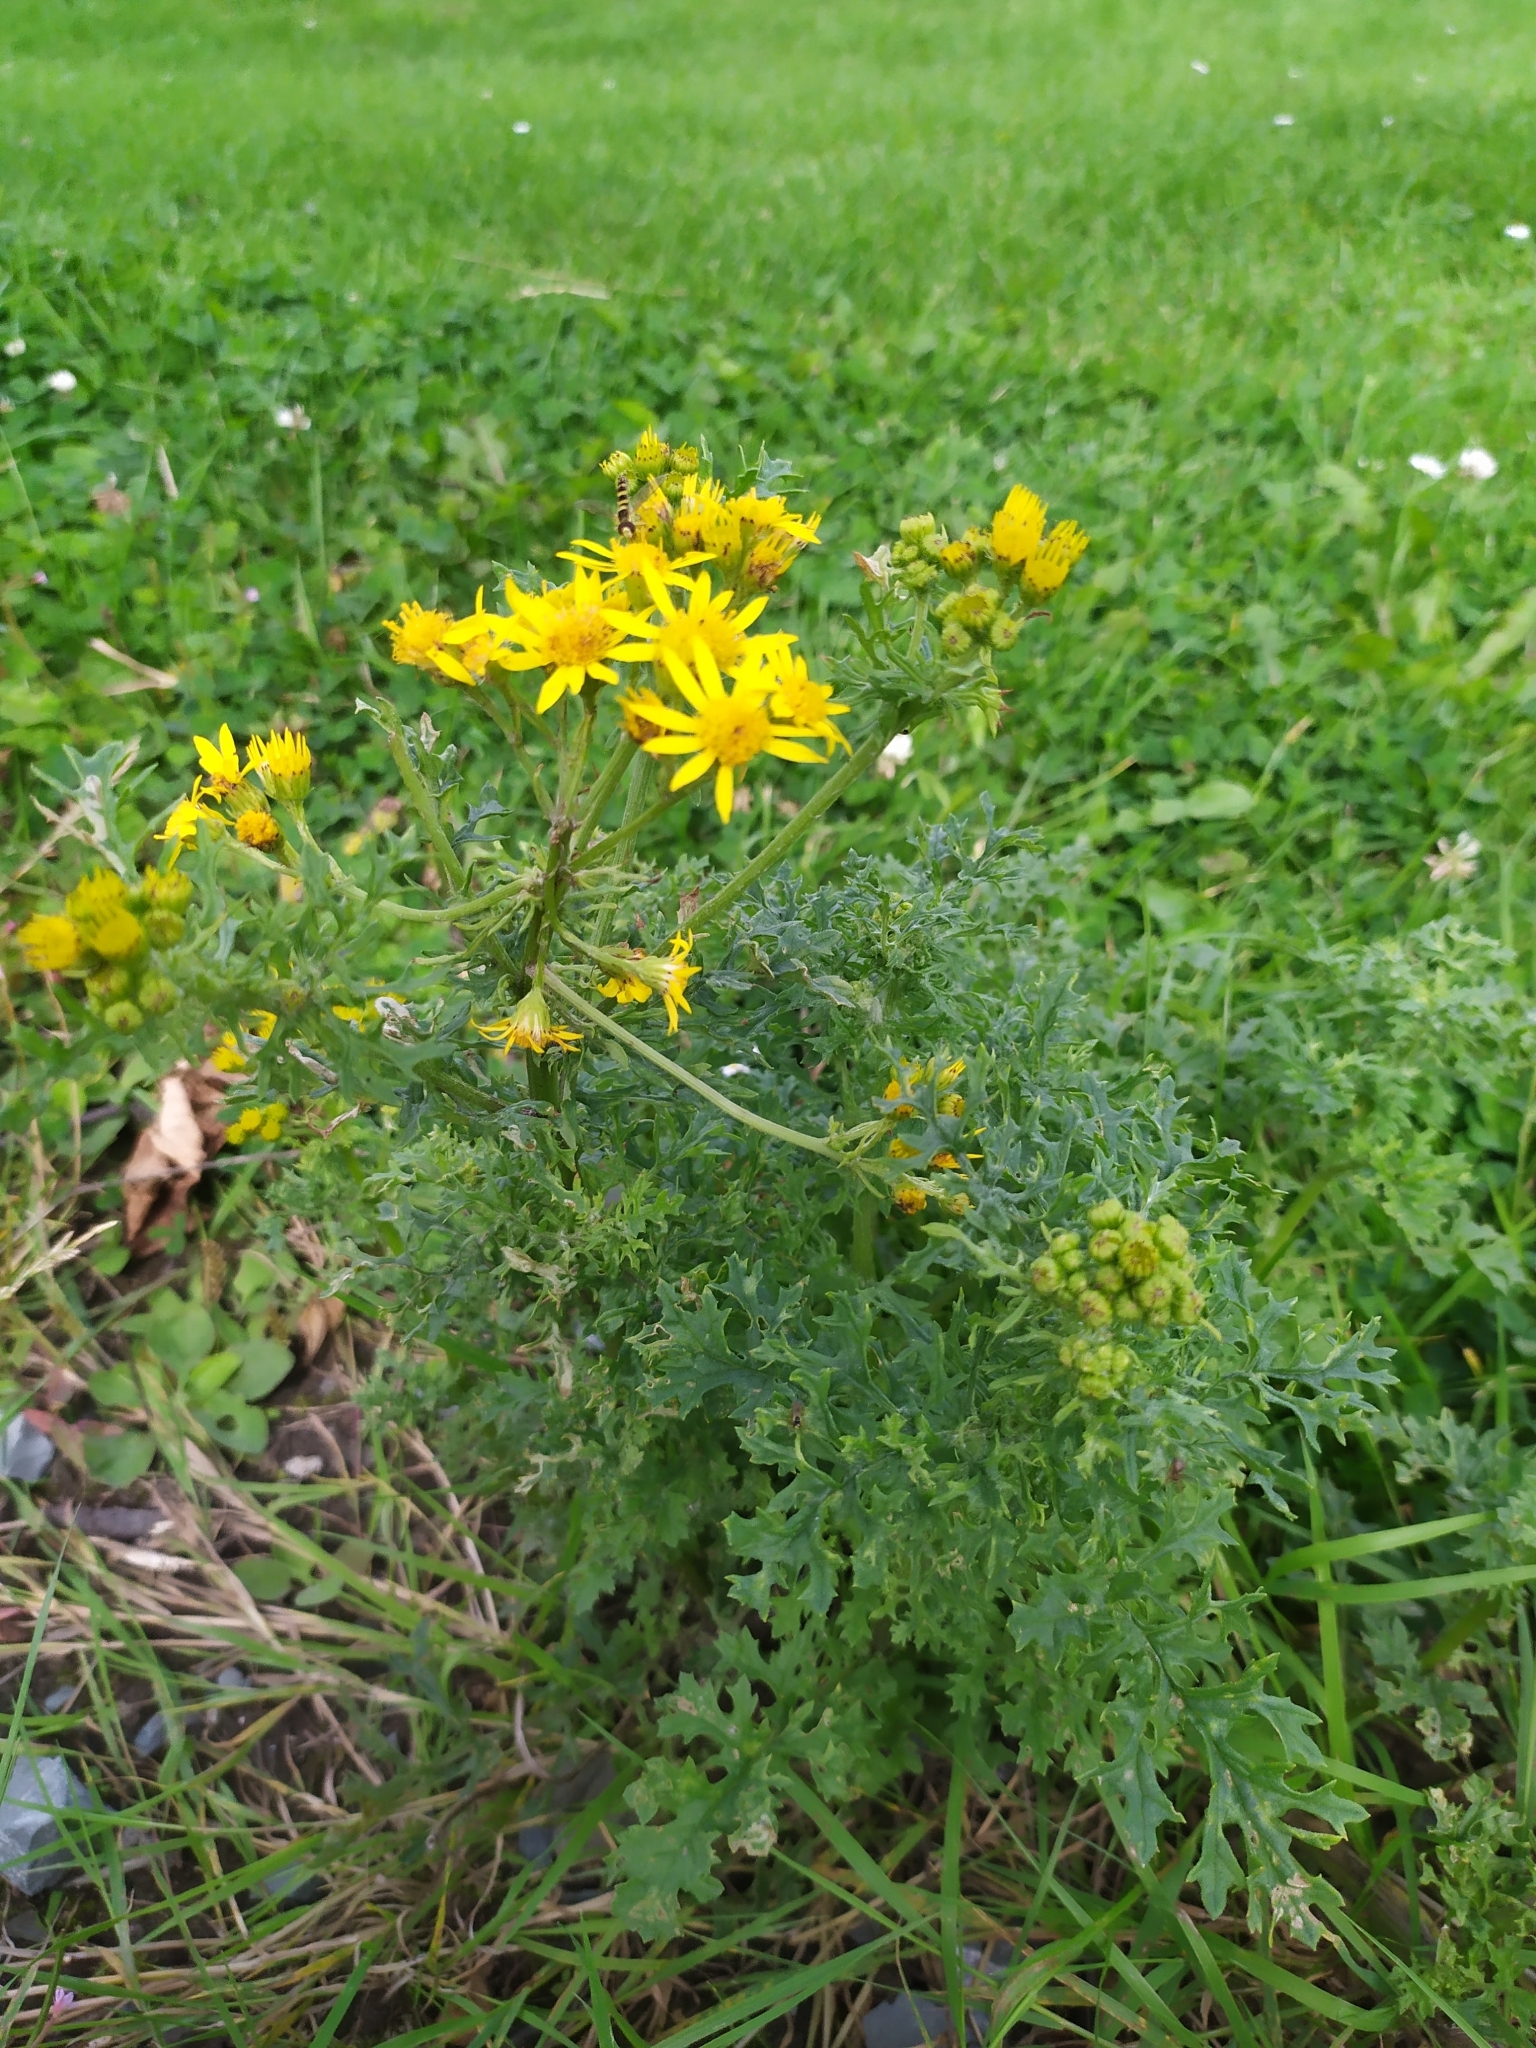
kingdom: Plantae
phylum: Tracheophyta
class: Magnoliopsida
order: Asterales
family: Asteraceae
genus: Jacobaea
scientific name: Jacobaea vulgaris
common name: Stinking willie
